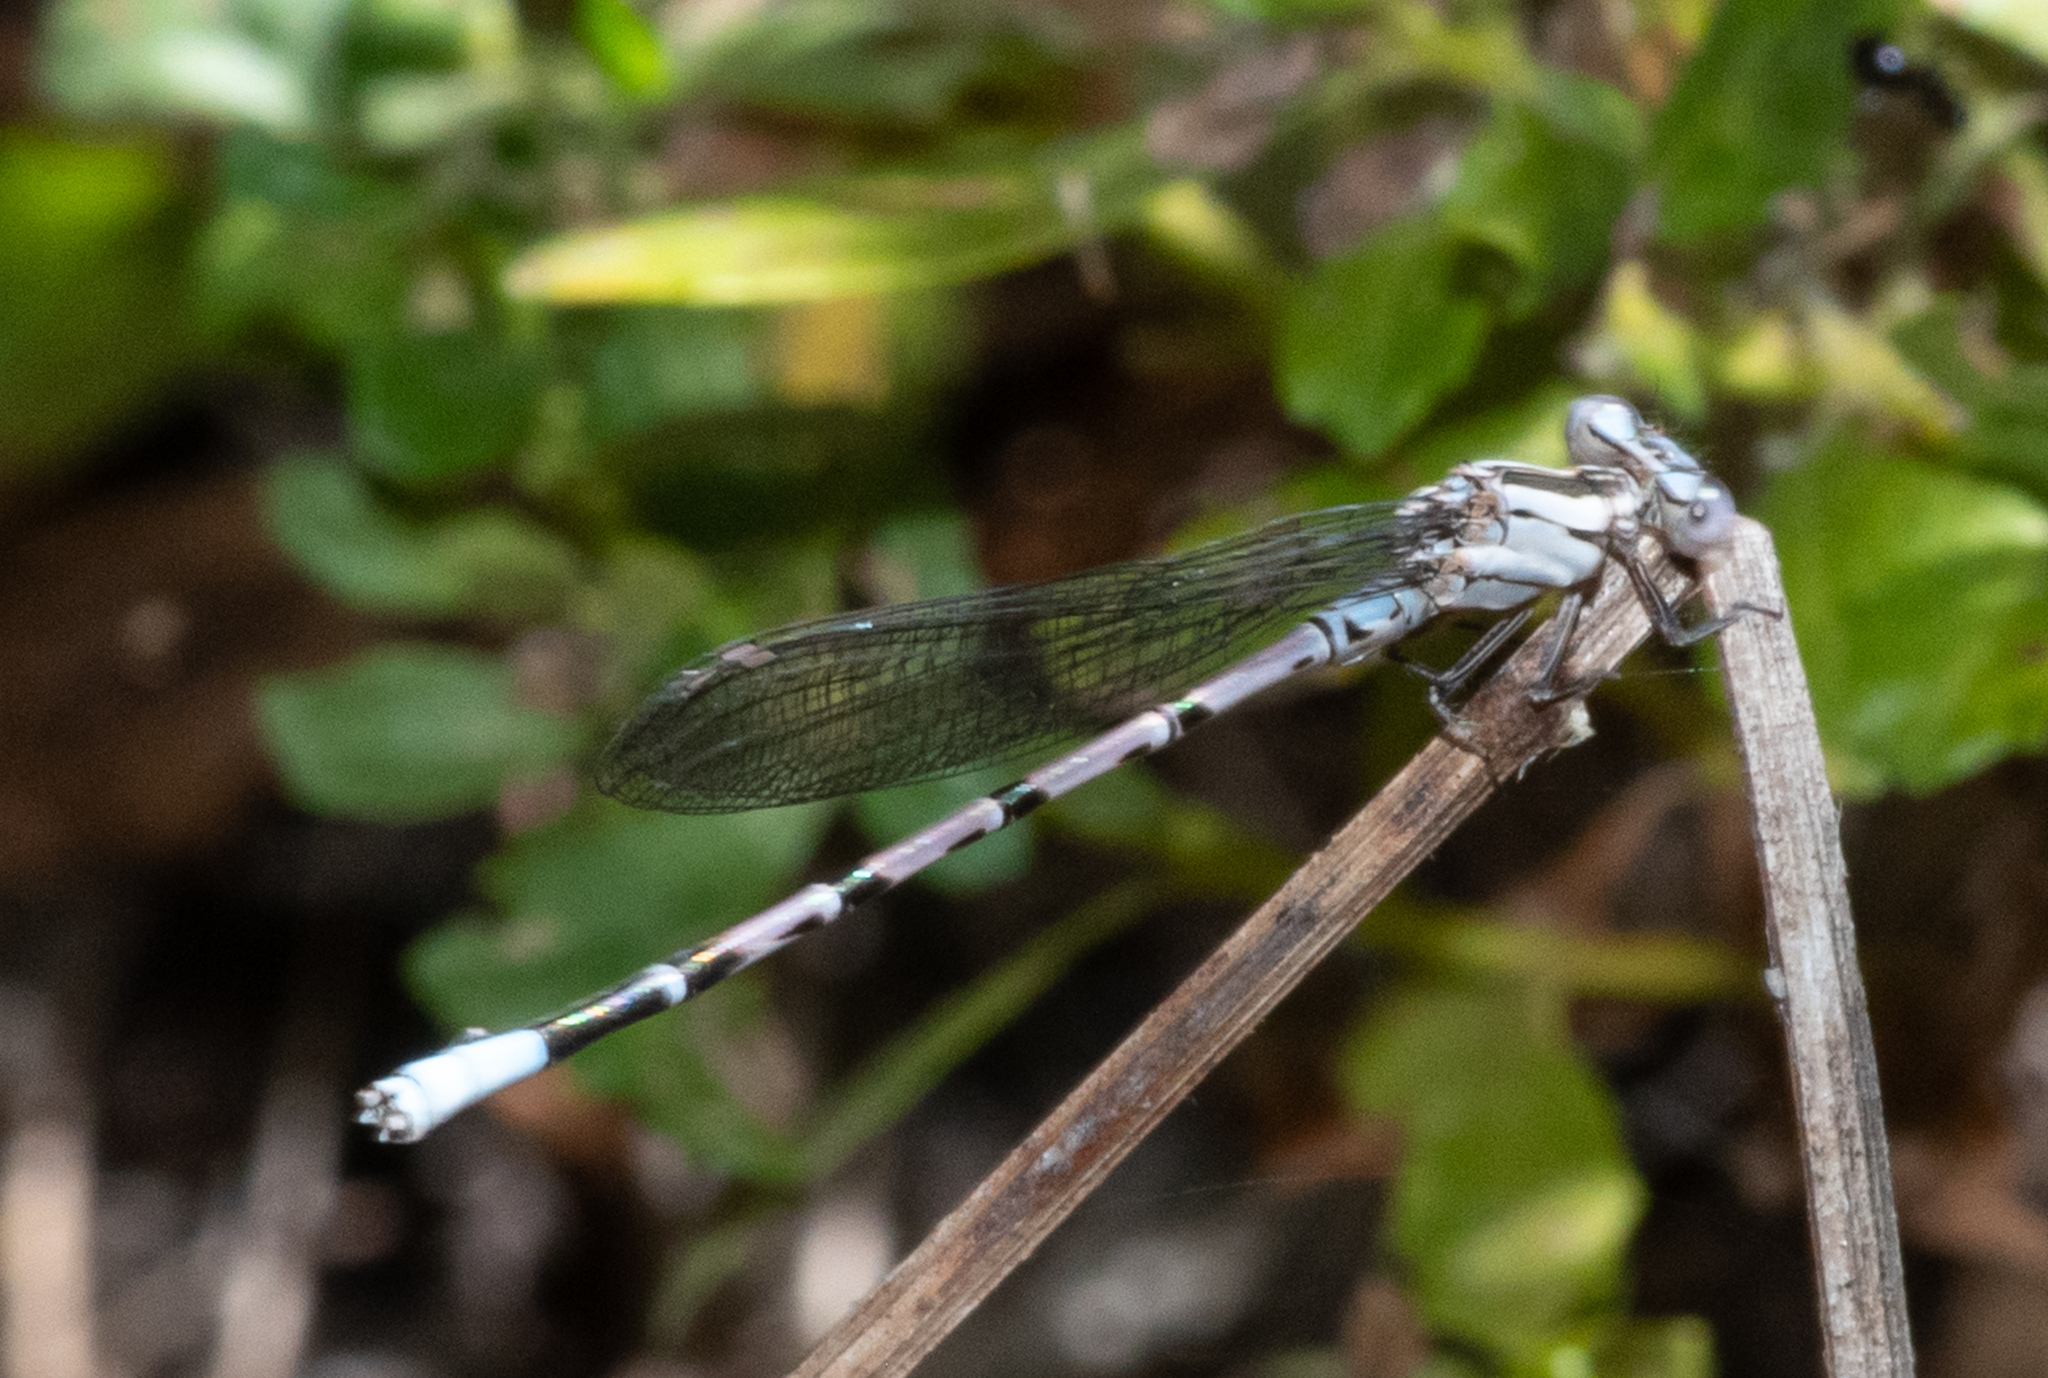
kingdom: Animalia
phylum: Arthropoda
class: Insecta
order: Odonata
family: Coenagrionidae
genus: Argia
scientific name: Argia vivida
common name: Vivid dancer
